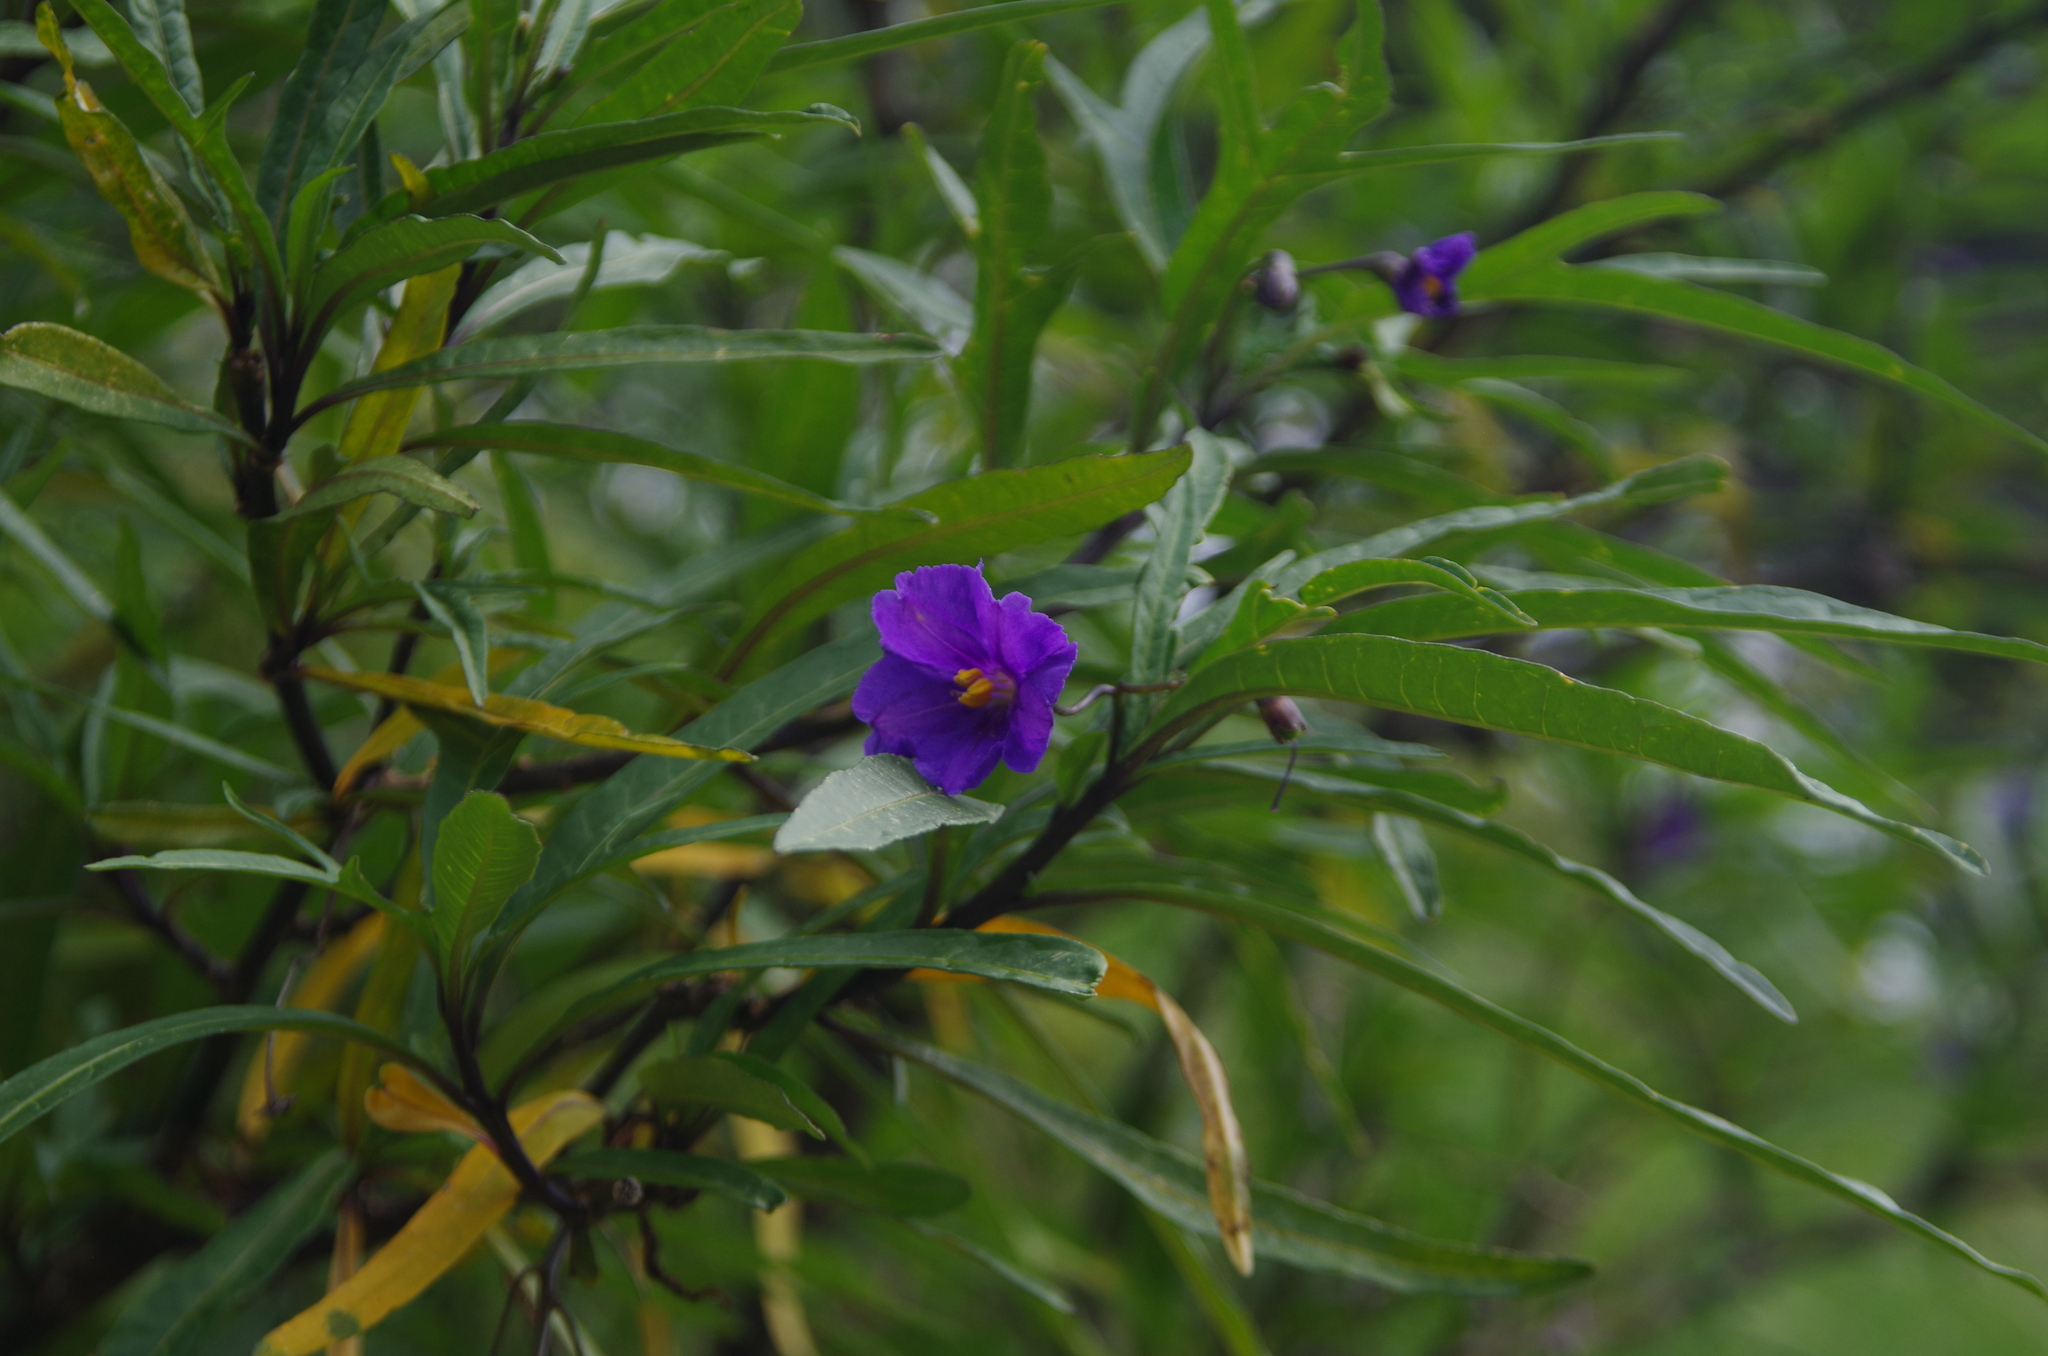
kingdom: Plantae
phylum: Tracheophyta
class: Magnoliopsida
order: Solanales
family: Solanaceae
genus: Solanum
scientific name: Solanum laciniatum
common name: Kangaroo-apple
